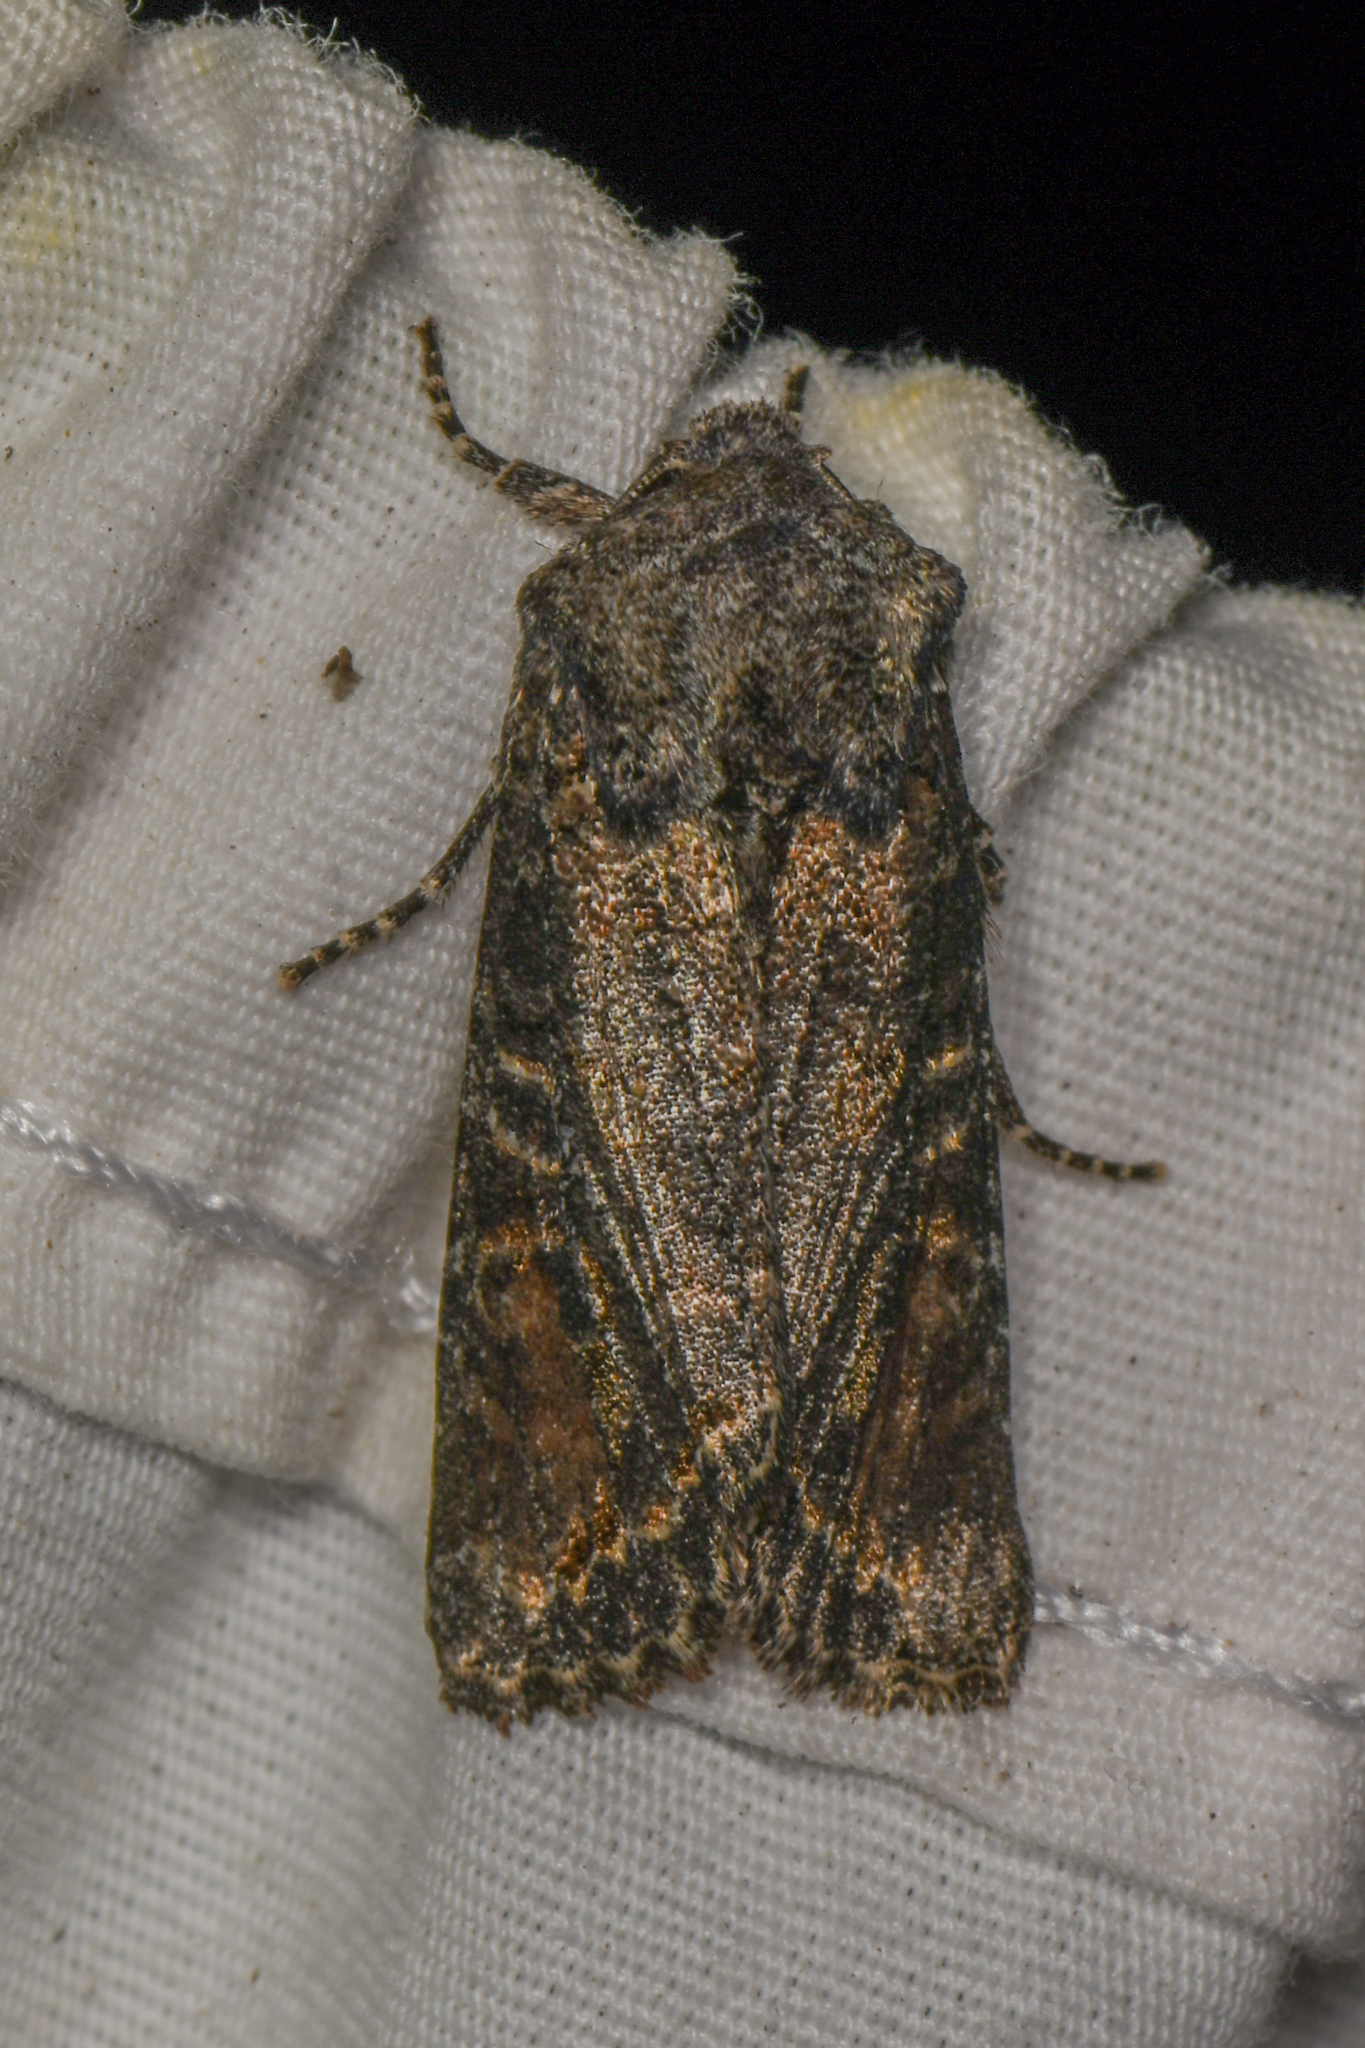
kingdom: Animalia
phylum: Arthropoda
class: Insecta
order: Lepidoptera
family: Noctuidae
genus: Egira
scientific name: Egira perlubens
